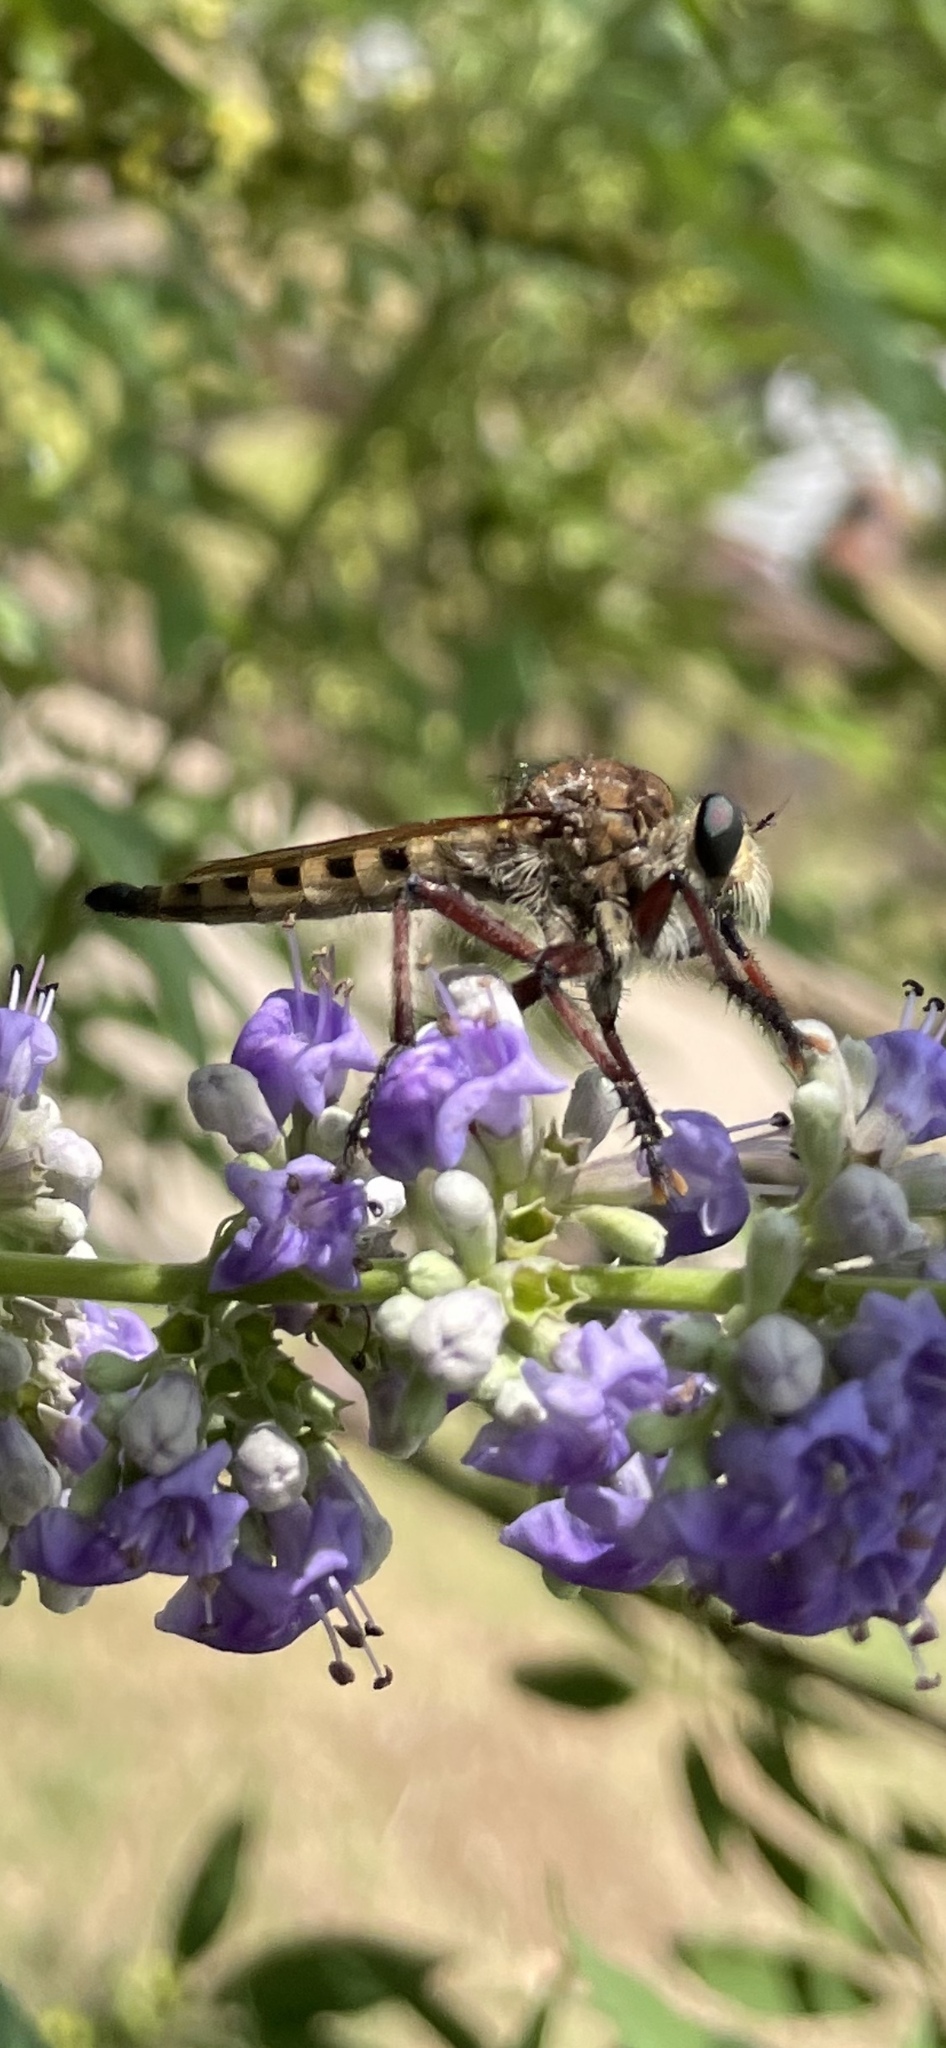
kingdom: Animalia
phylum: Arthropoda
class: Insecta
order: Diptera
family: Asilidae
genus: Promachus
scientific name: Promachus hinei
